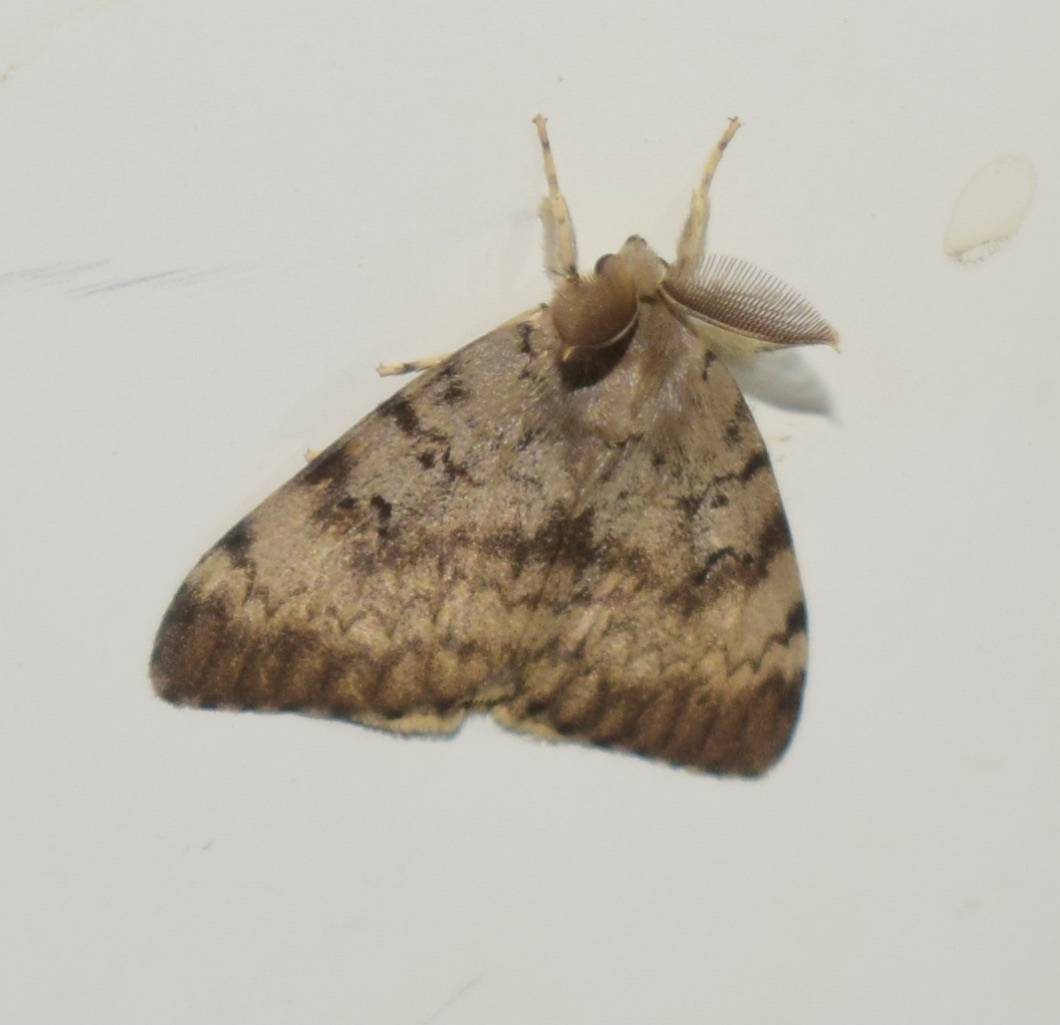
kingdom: Animalia
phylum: Arthropoda
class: Insecta
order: Lepidoptera
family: Erebidae
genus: Lymantria
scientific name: Lymantria dispar
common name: Gypsy moth
